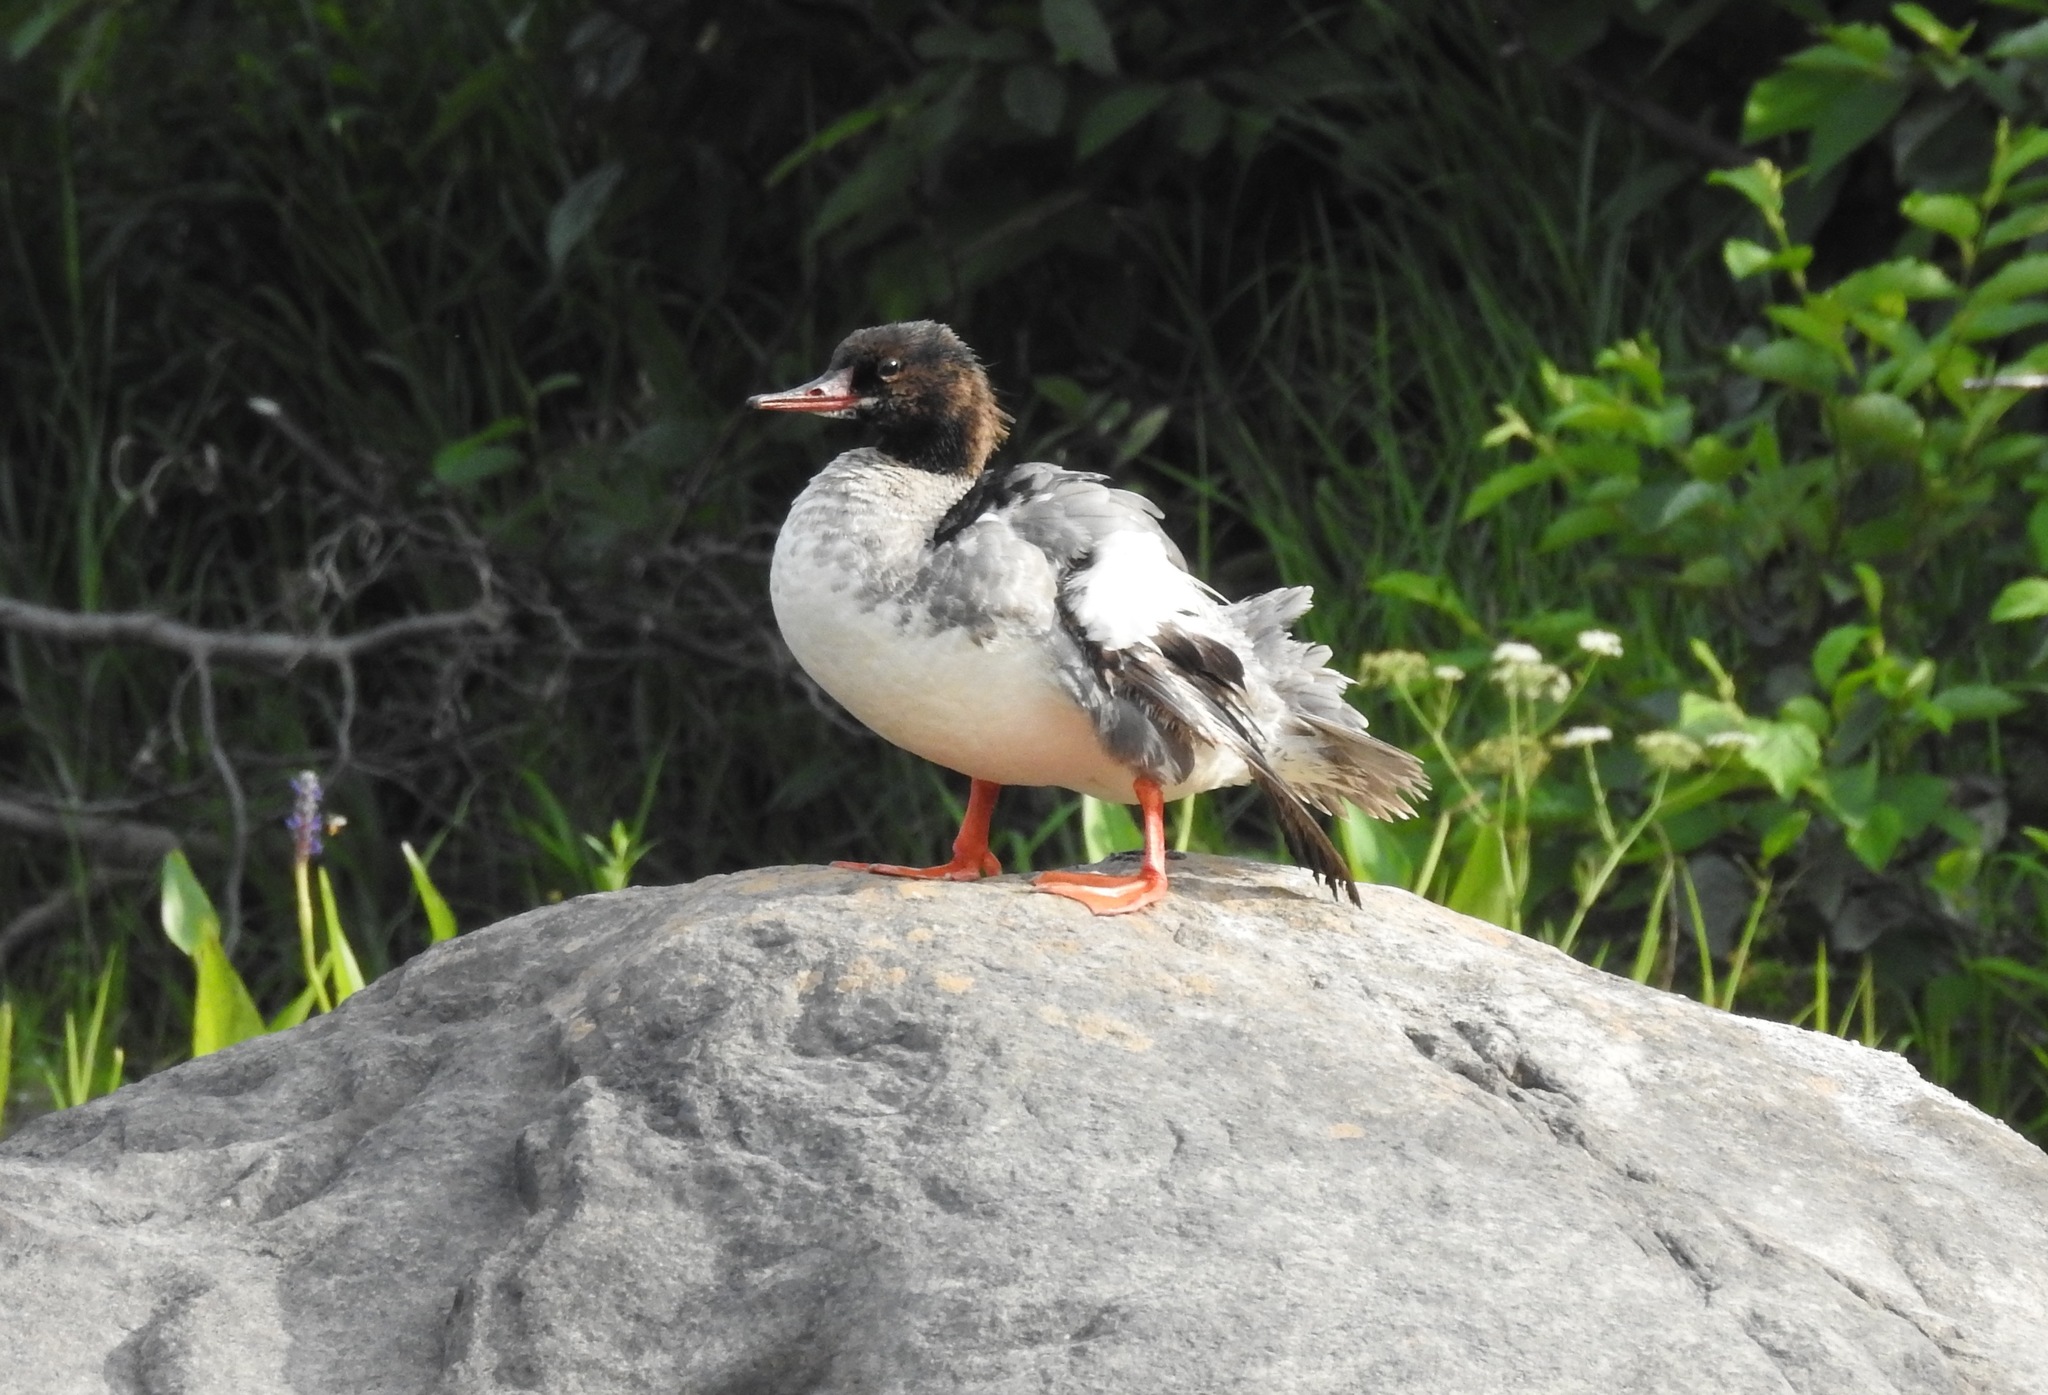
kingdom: Animalia
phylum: Chordata
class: Aves
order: Anseriformes
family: Anatidae
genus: Mergus
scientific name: Mergus merganser
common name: Common merganser
